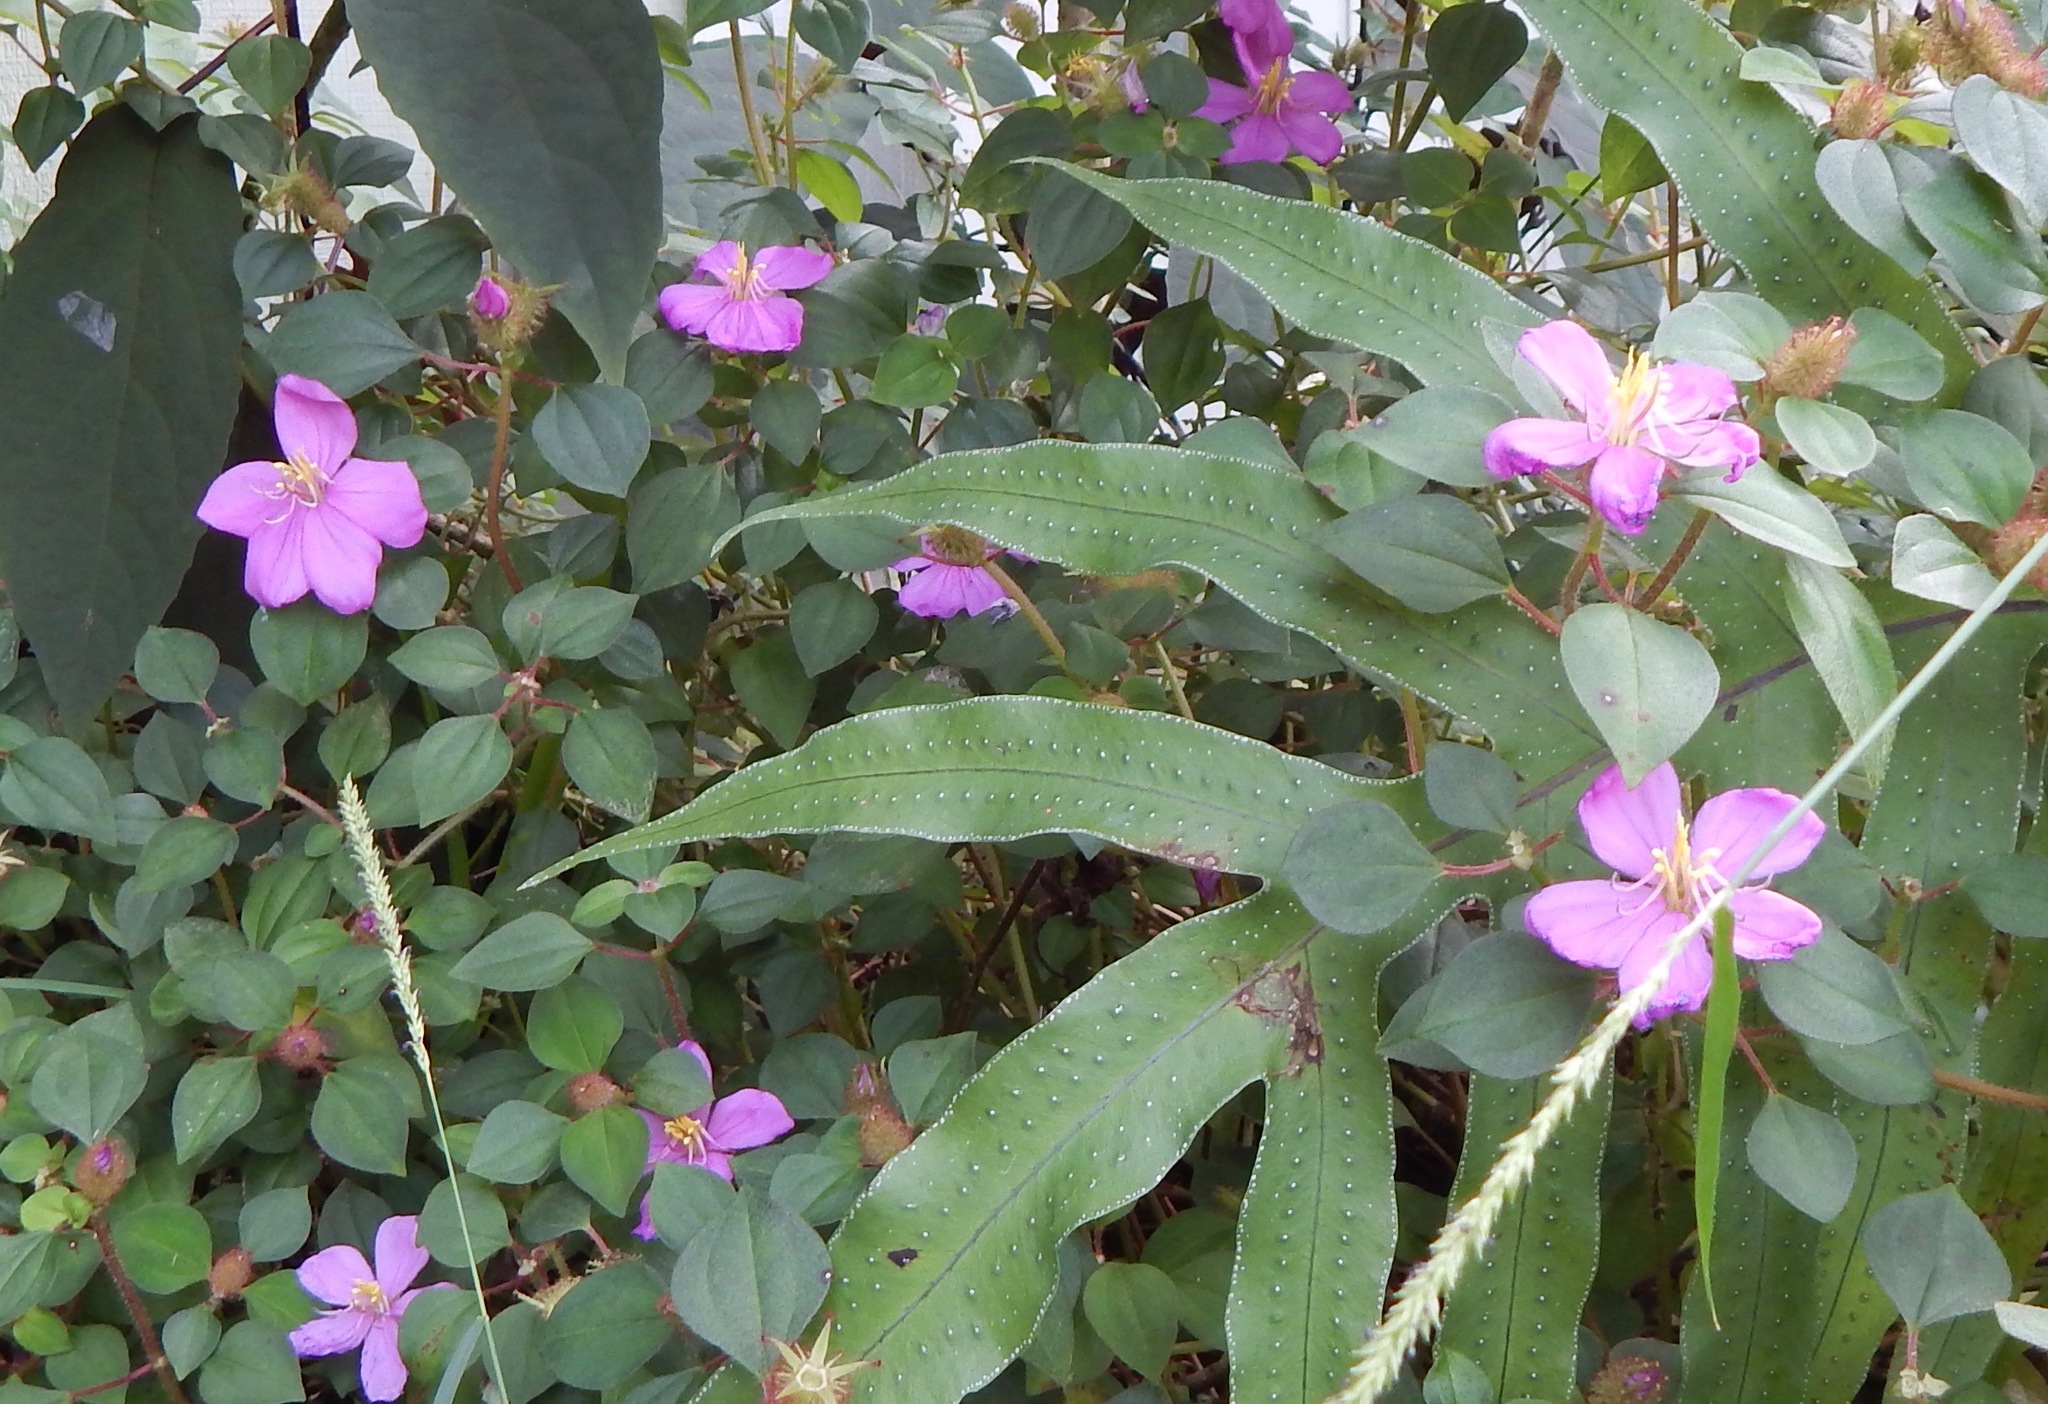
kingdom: Plantae
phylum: Tracheophyta
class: Magnoliopsida
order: Myrtales
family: Melastomataceae
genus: Heterotis
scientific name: Heterotis rotundifolia
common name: Pinklady
